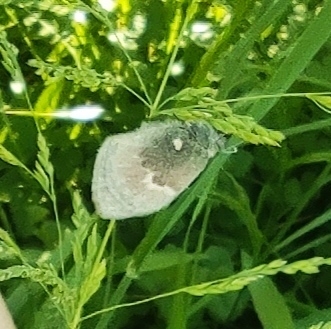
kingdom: Animalia
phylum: Arthropoda
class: Insecta
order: Lepidoptera
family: Nymphalidae
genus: Coenonympha
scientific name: Coenonympha pamphilus
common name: Small heath
